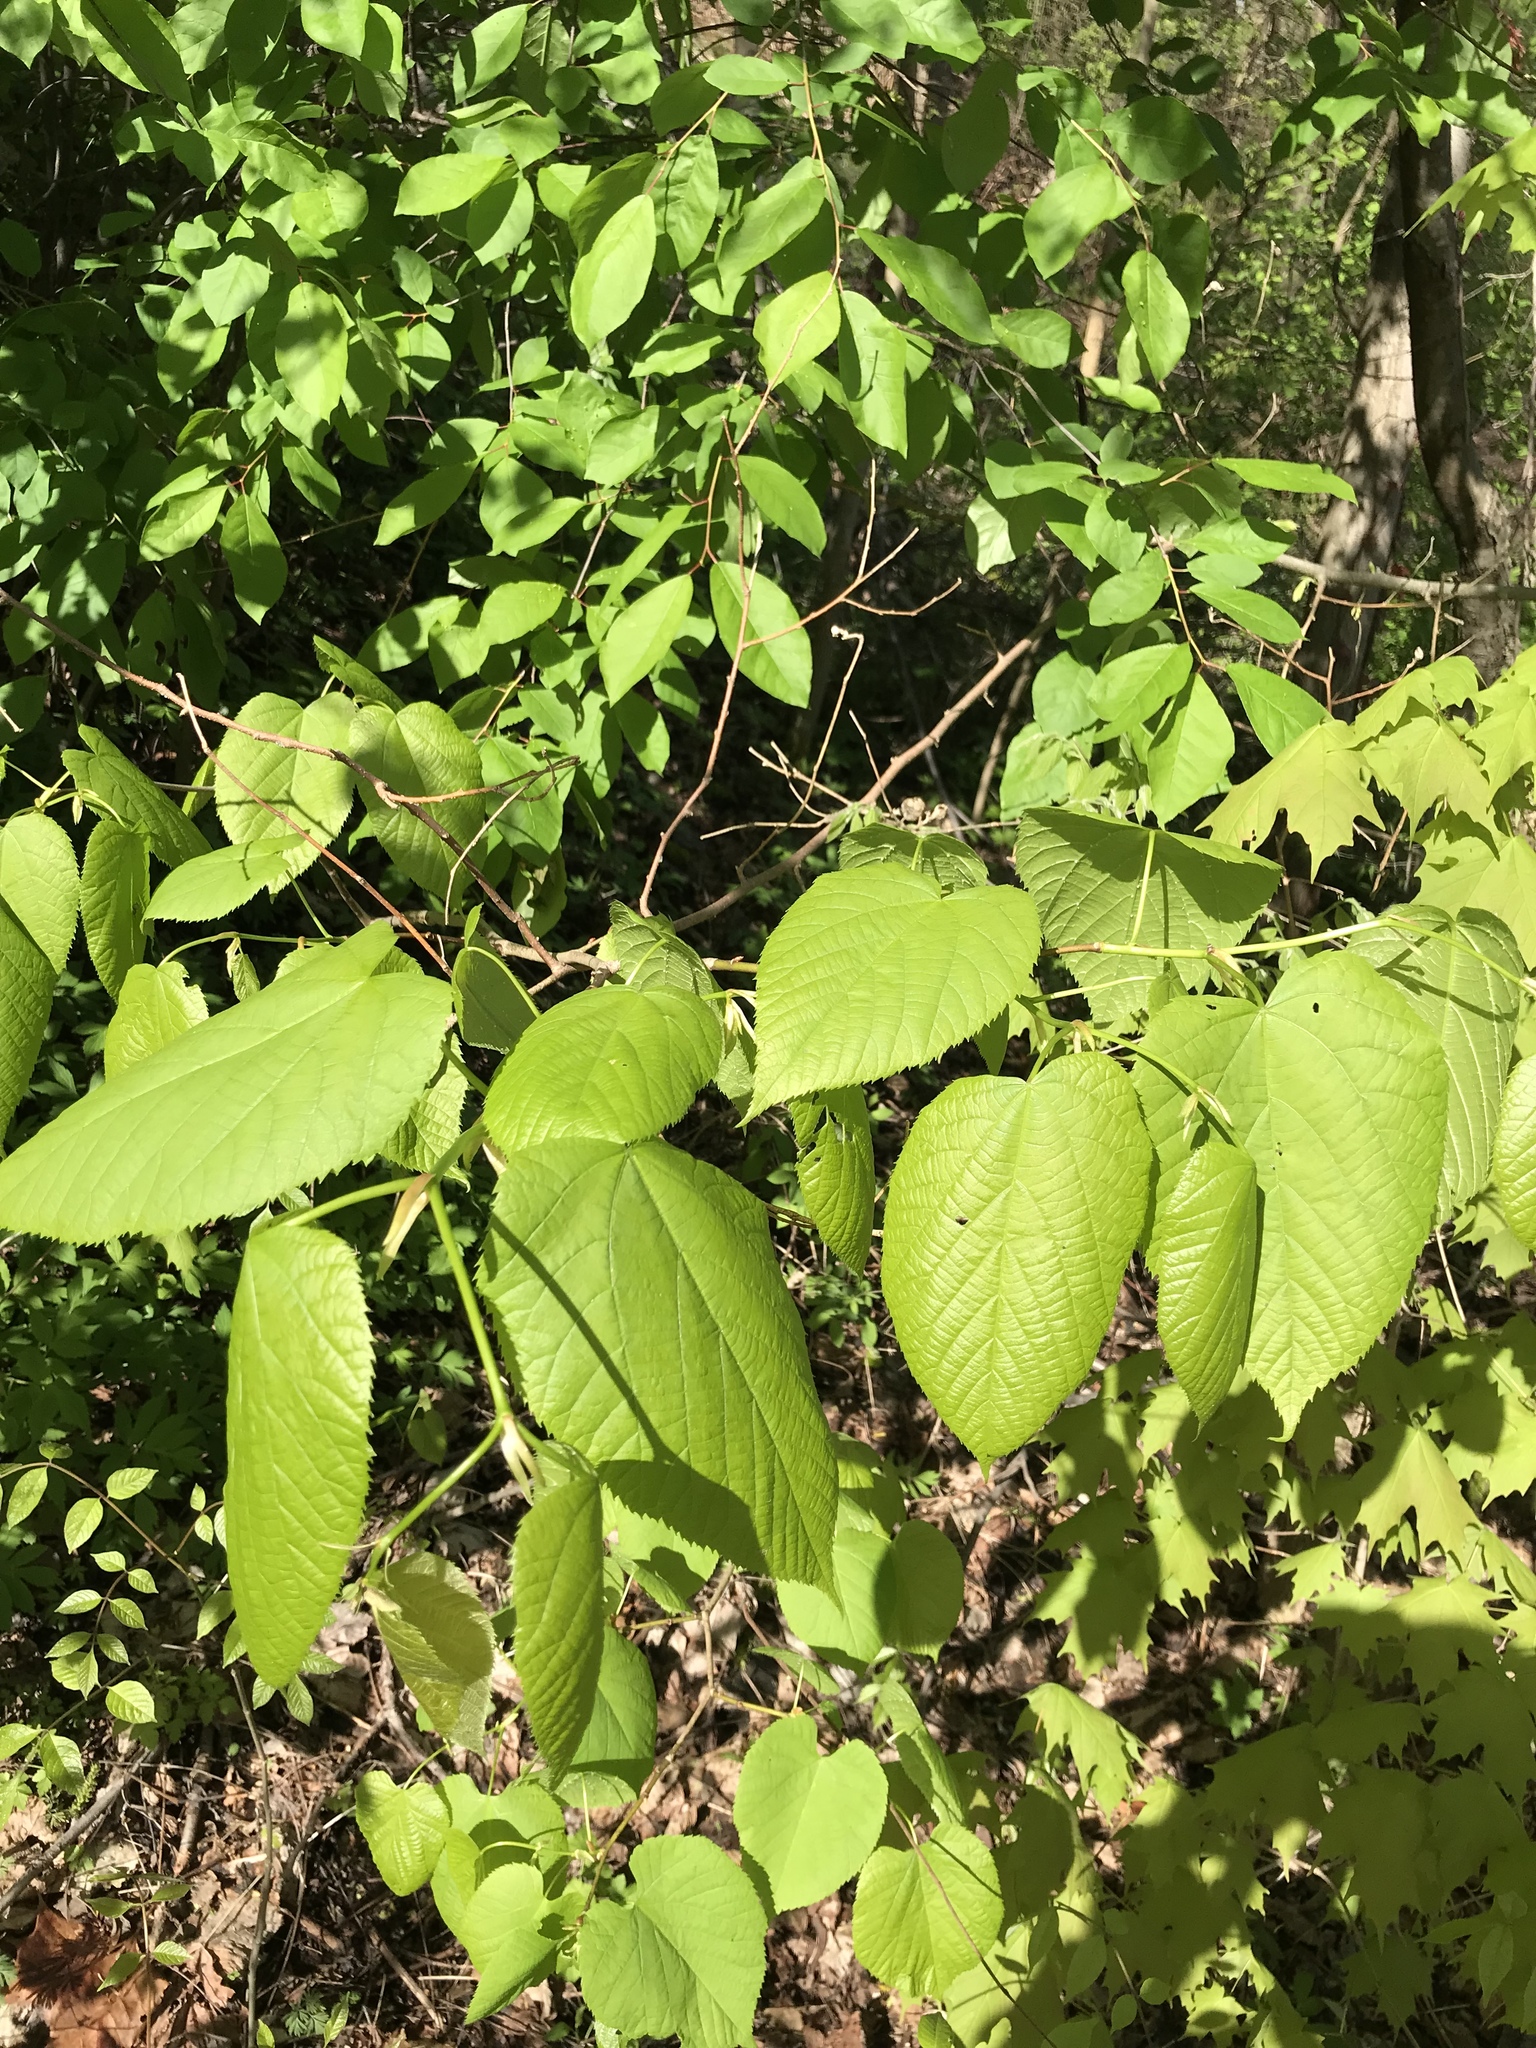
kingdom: Plantae
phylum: Tracheophyta
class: Magnoliopsida
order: Malvales
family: Malvaceae
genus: Tilia
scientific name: Tilia americana
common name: Basswood
